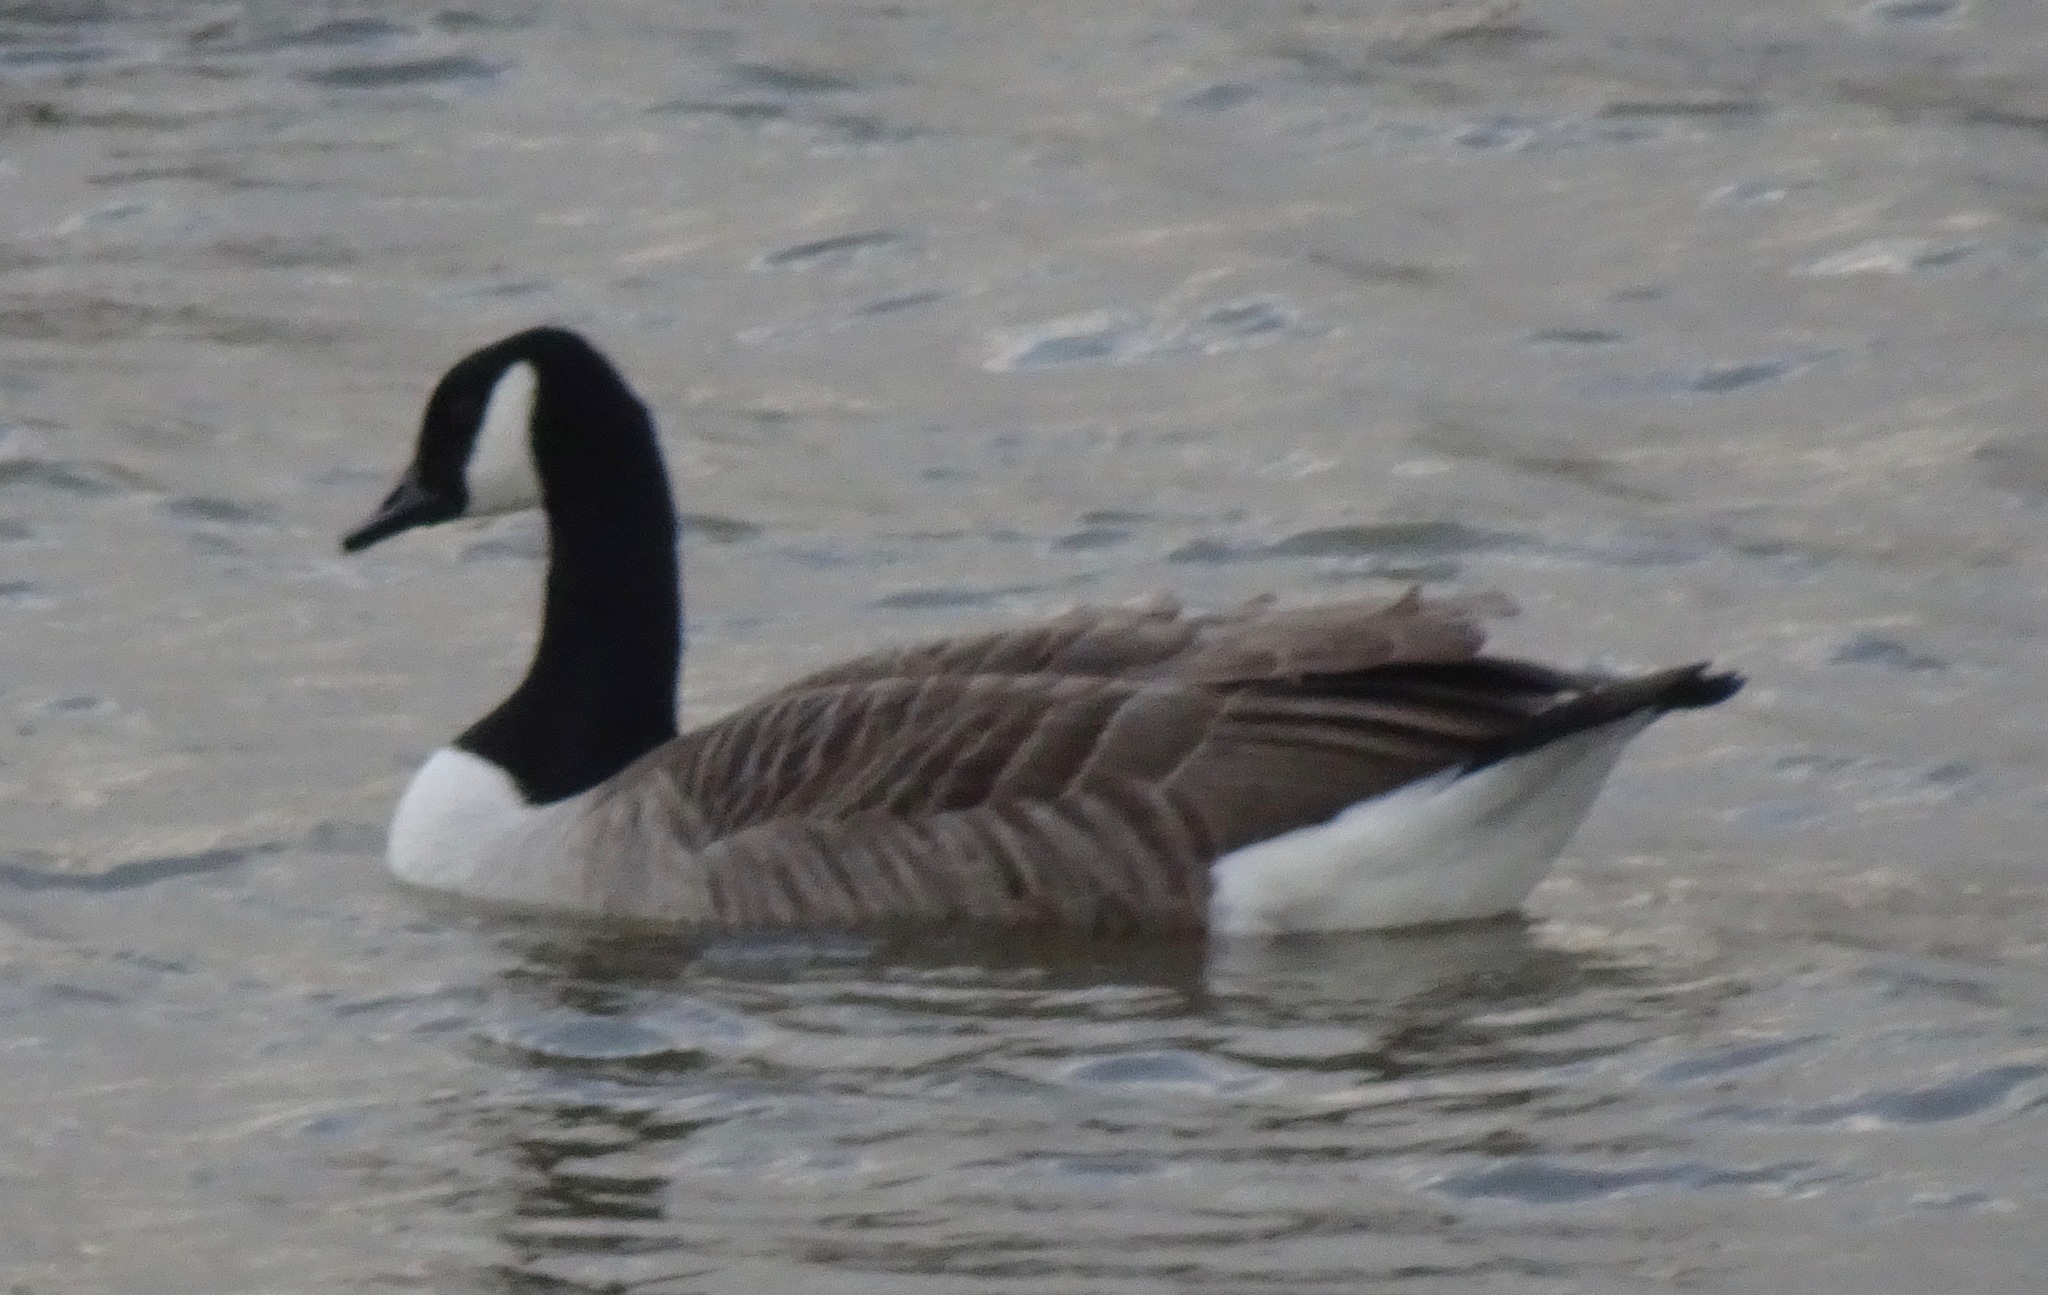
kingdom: Animalia
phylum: Chordata
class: Aves
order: Anseriformes
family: Anatidae
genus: Branta
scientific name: Branta canadensis
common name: Canada goose
